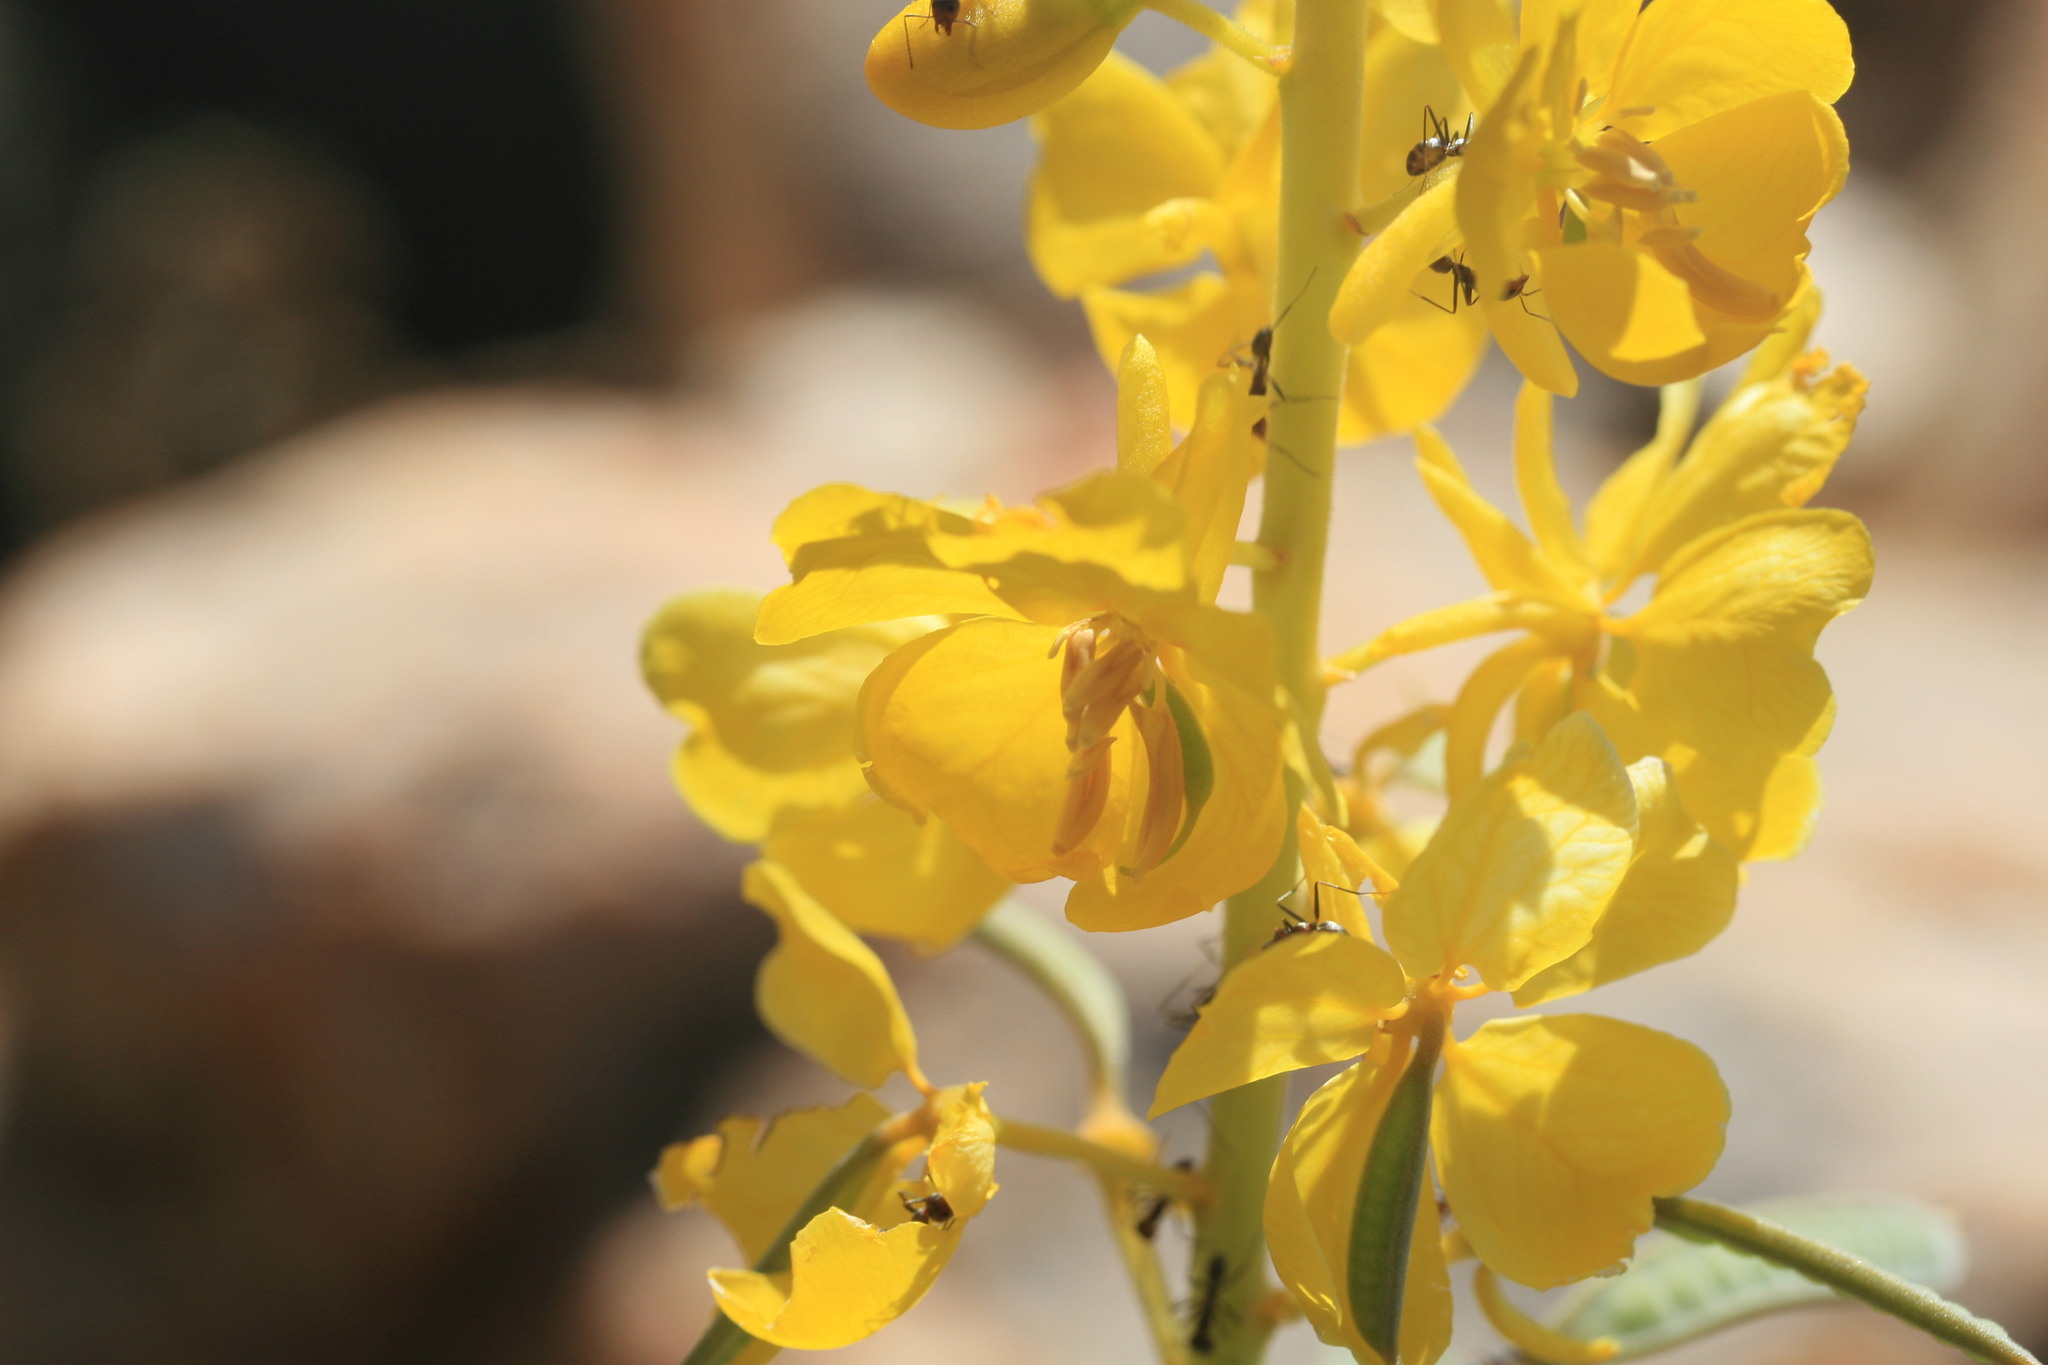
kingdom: Plantae
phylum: Tracheophyta
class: Magnoliopsida
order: Fabales
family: Fabaceae
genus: Senna
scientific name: Senna venusta
